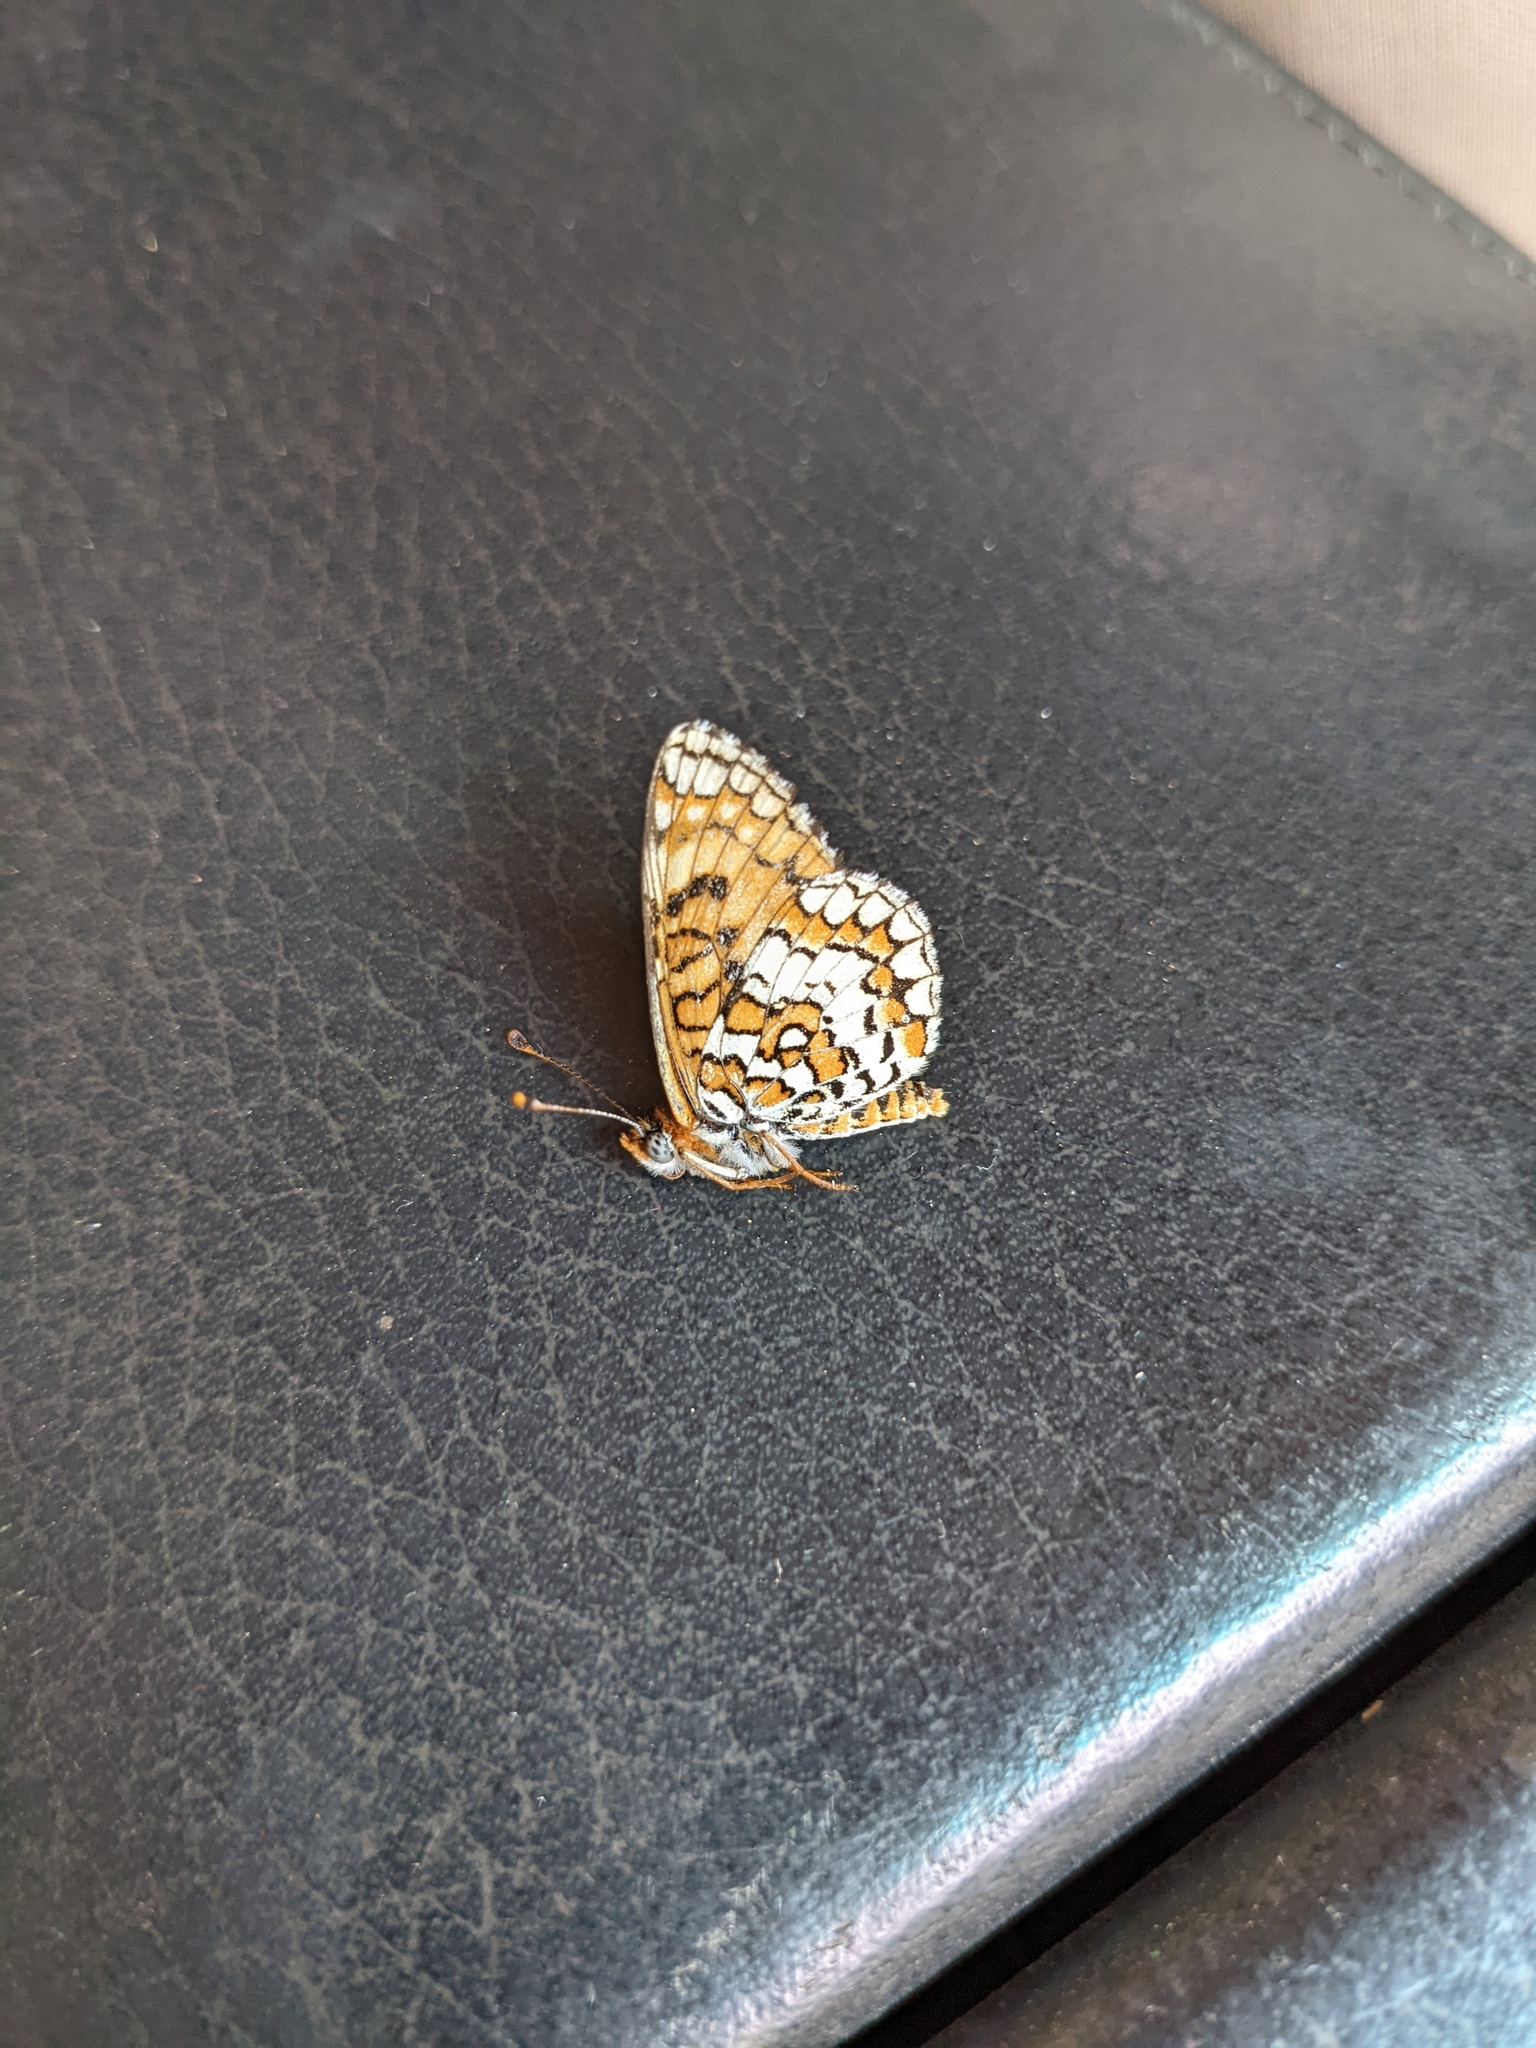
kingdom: Animalia
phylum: Arthropoda
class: Insecta
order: Lepidoptera
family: Nymphalidae
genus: Poladryas
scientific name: Poladryas minuta
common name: Dotted checkerspot
